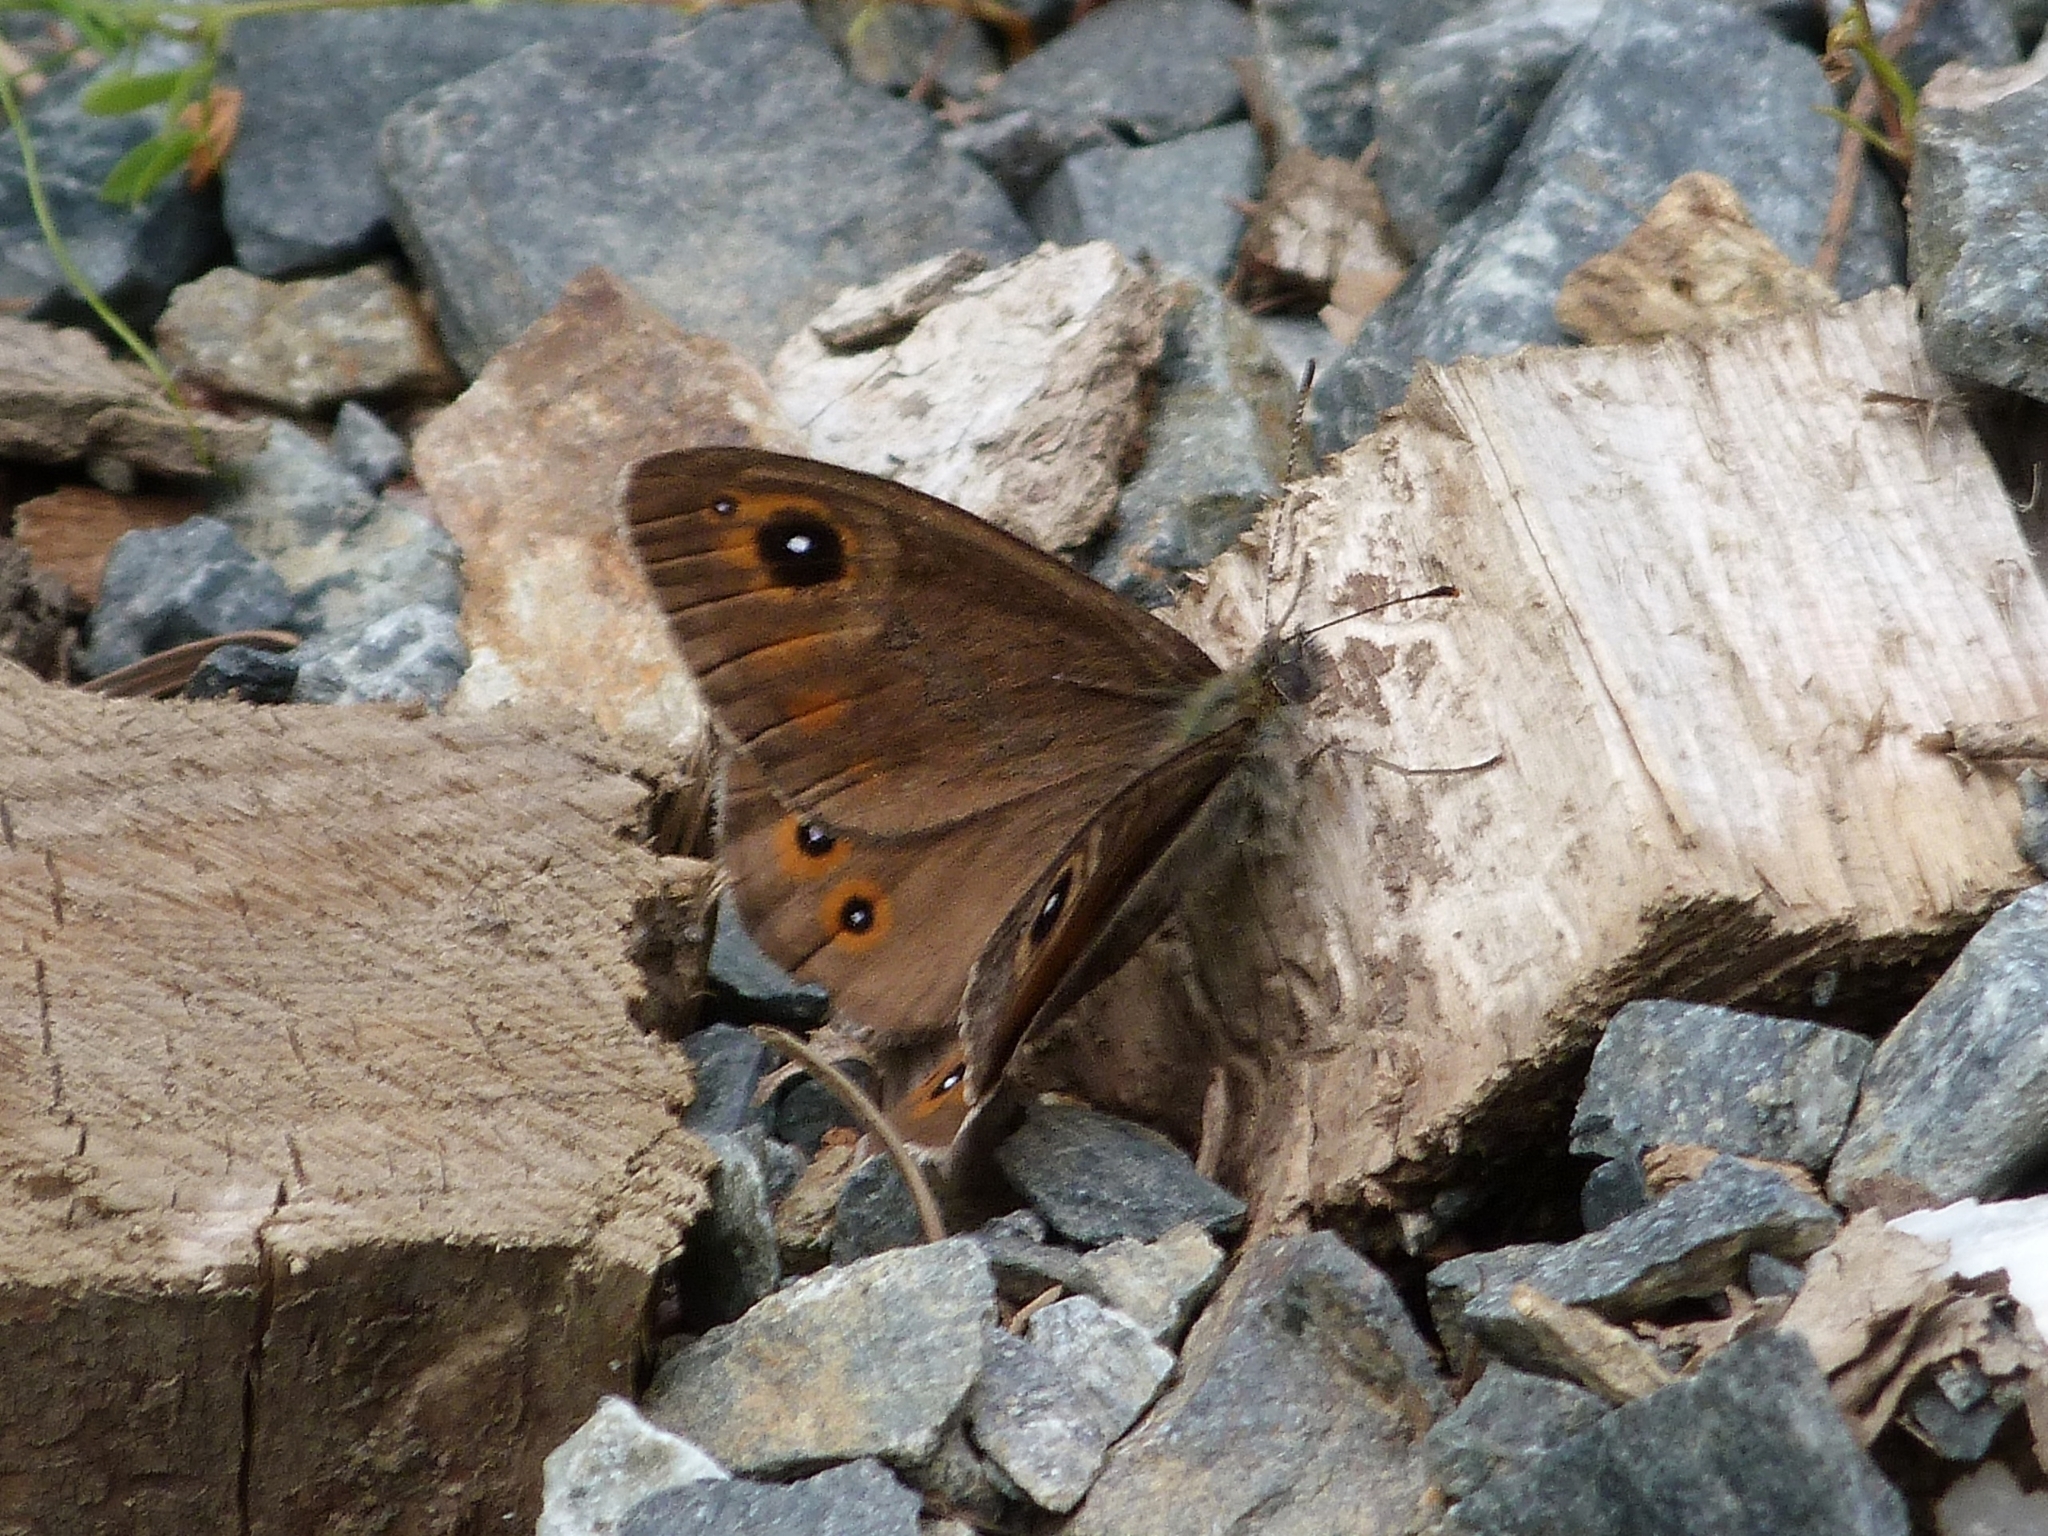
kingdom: Animalia
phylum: Arthropoda
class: Insecta
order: Lepidoptera
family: Nymphalidae
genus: Pararge
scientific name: Pararge Lasiommata maera
